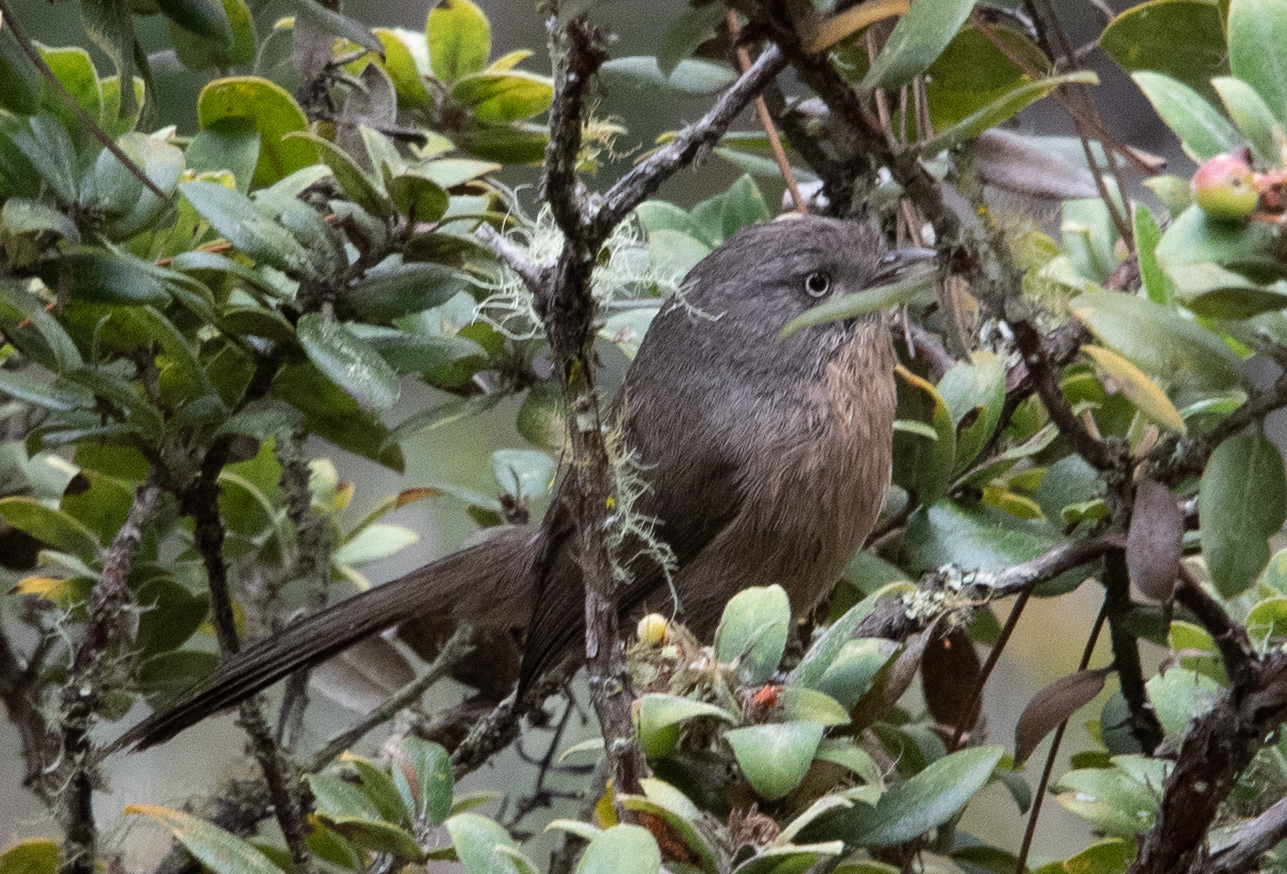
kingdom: Animalia
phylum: Chordata
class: Aves
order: Passeriformes
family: Sylviidae
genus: Chamaea
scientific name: Chamaea fasciata
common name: Wrentit
